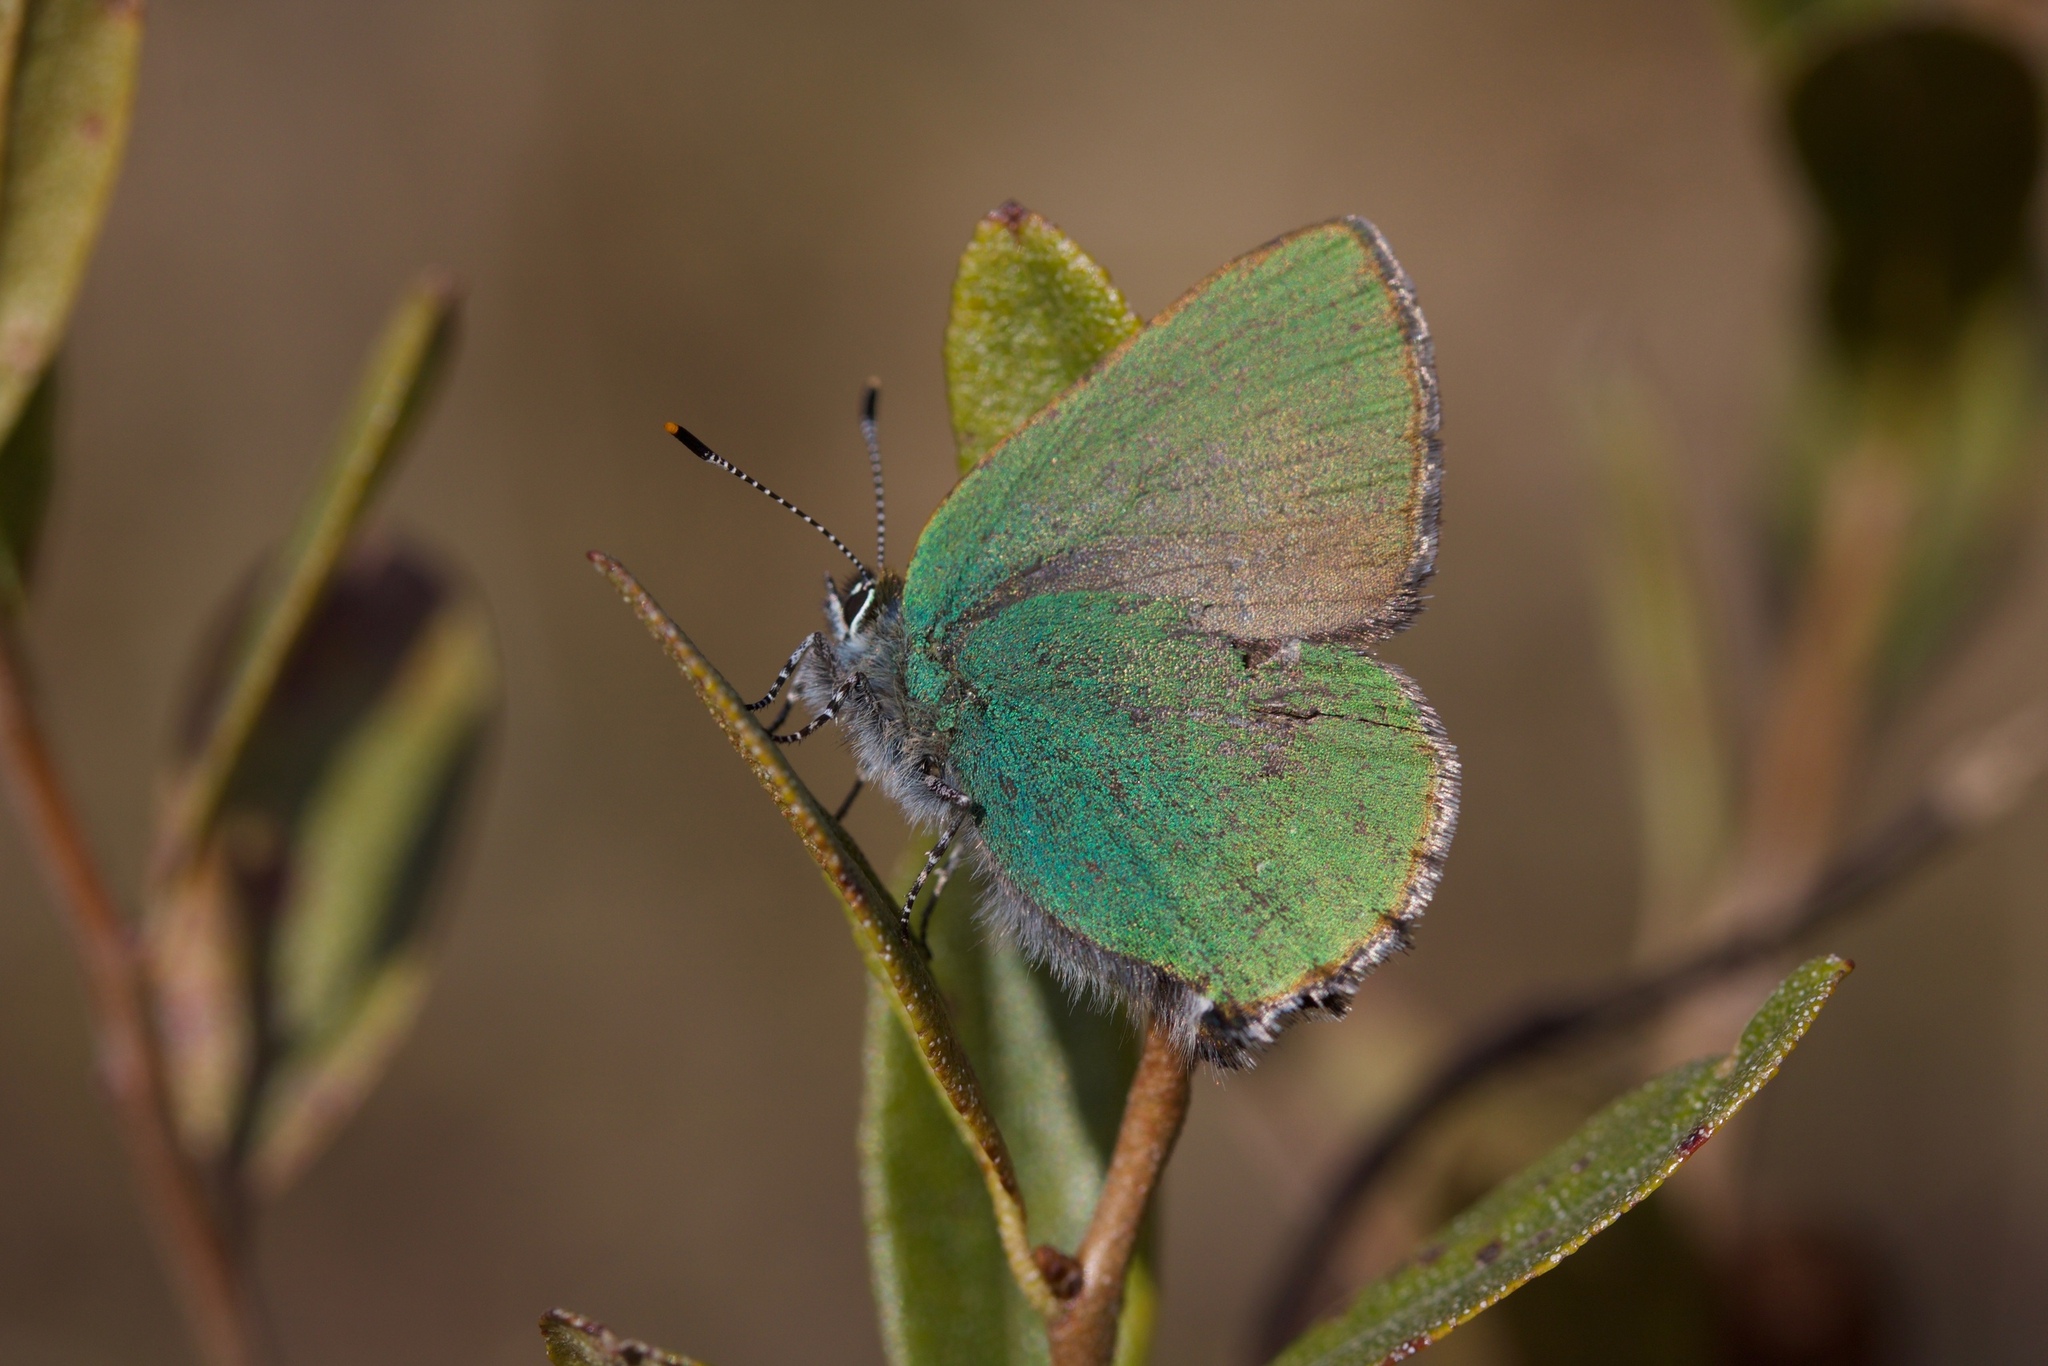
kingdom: Animalia
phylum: Arthropoda
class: Insecta
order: Lepidoptera
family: Lycaenidae
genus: Callophrys
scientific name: Callophrys rubi
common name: Green hairstreak
